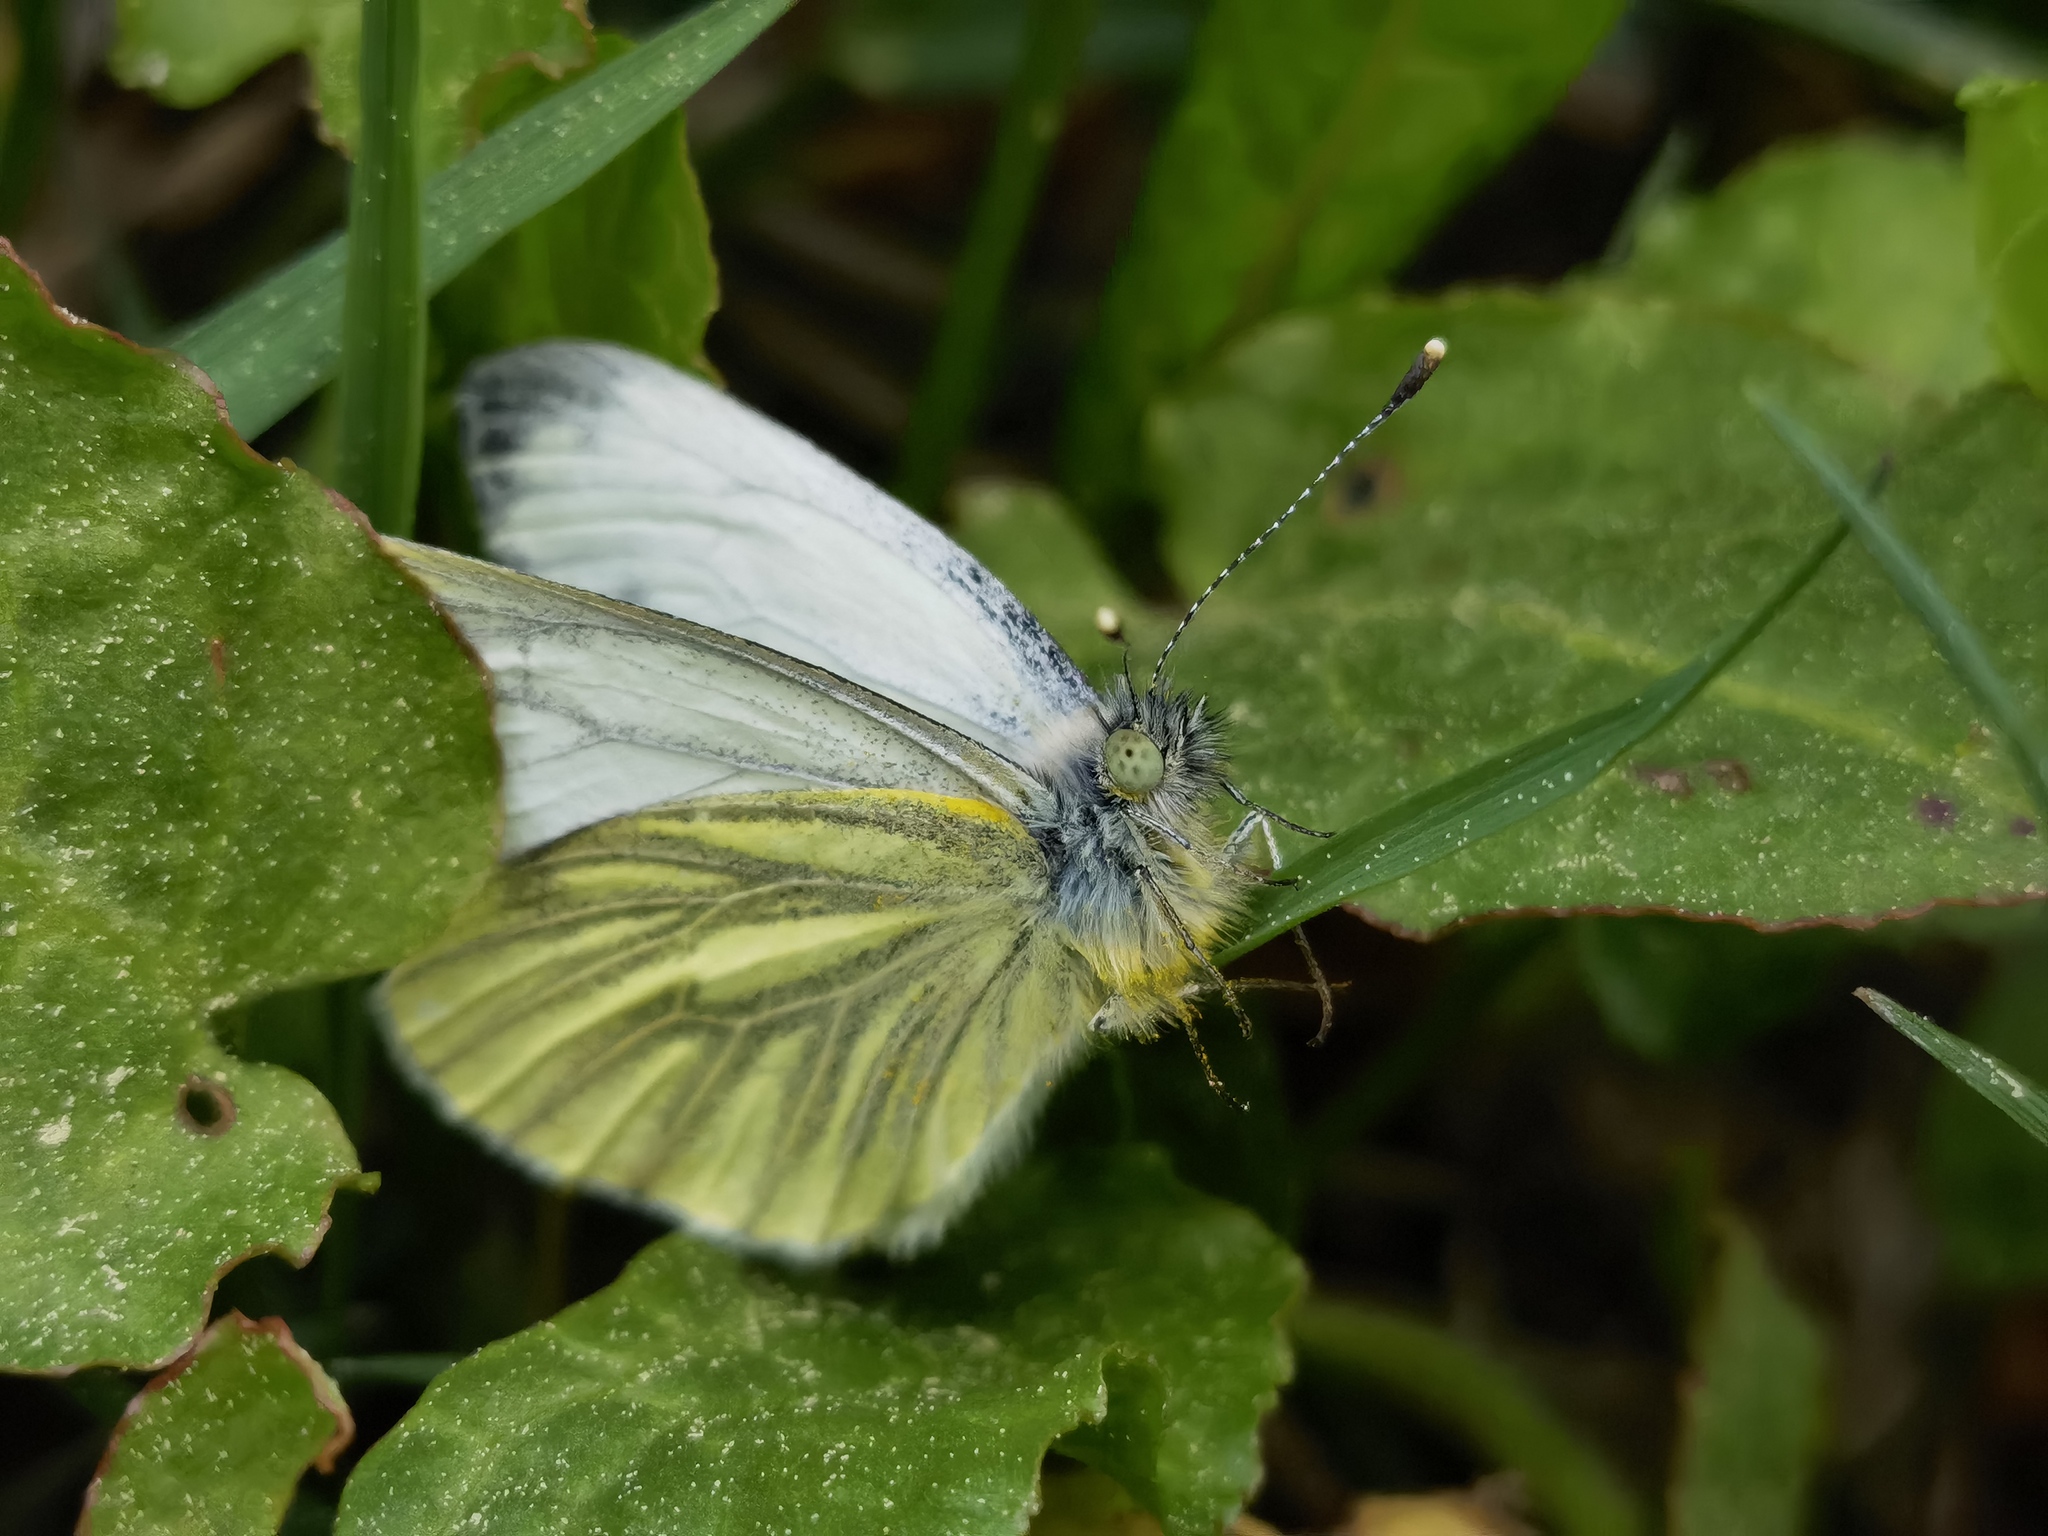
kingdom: Animalia
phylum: Arthropoda
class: Insecta
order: Lepidoptera
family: Pieridae
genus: Pieris
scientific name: Pieris napi
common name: Green-veined white
